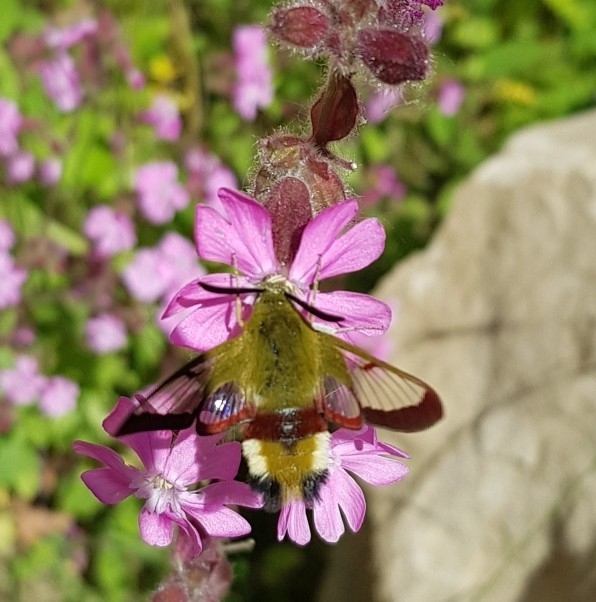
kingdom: Animalia
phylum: Arthropoda
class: Insecta
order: Lepidoptera
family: Sphingidae
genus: Hemaris
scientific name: Hemaris fuciformis
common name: Broad-bordered bee hawk-moth
